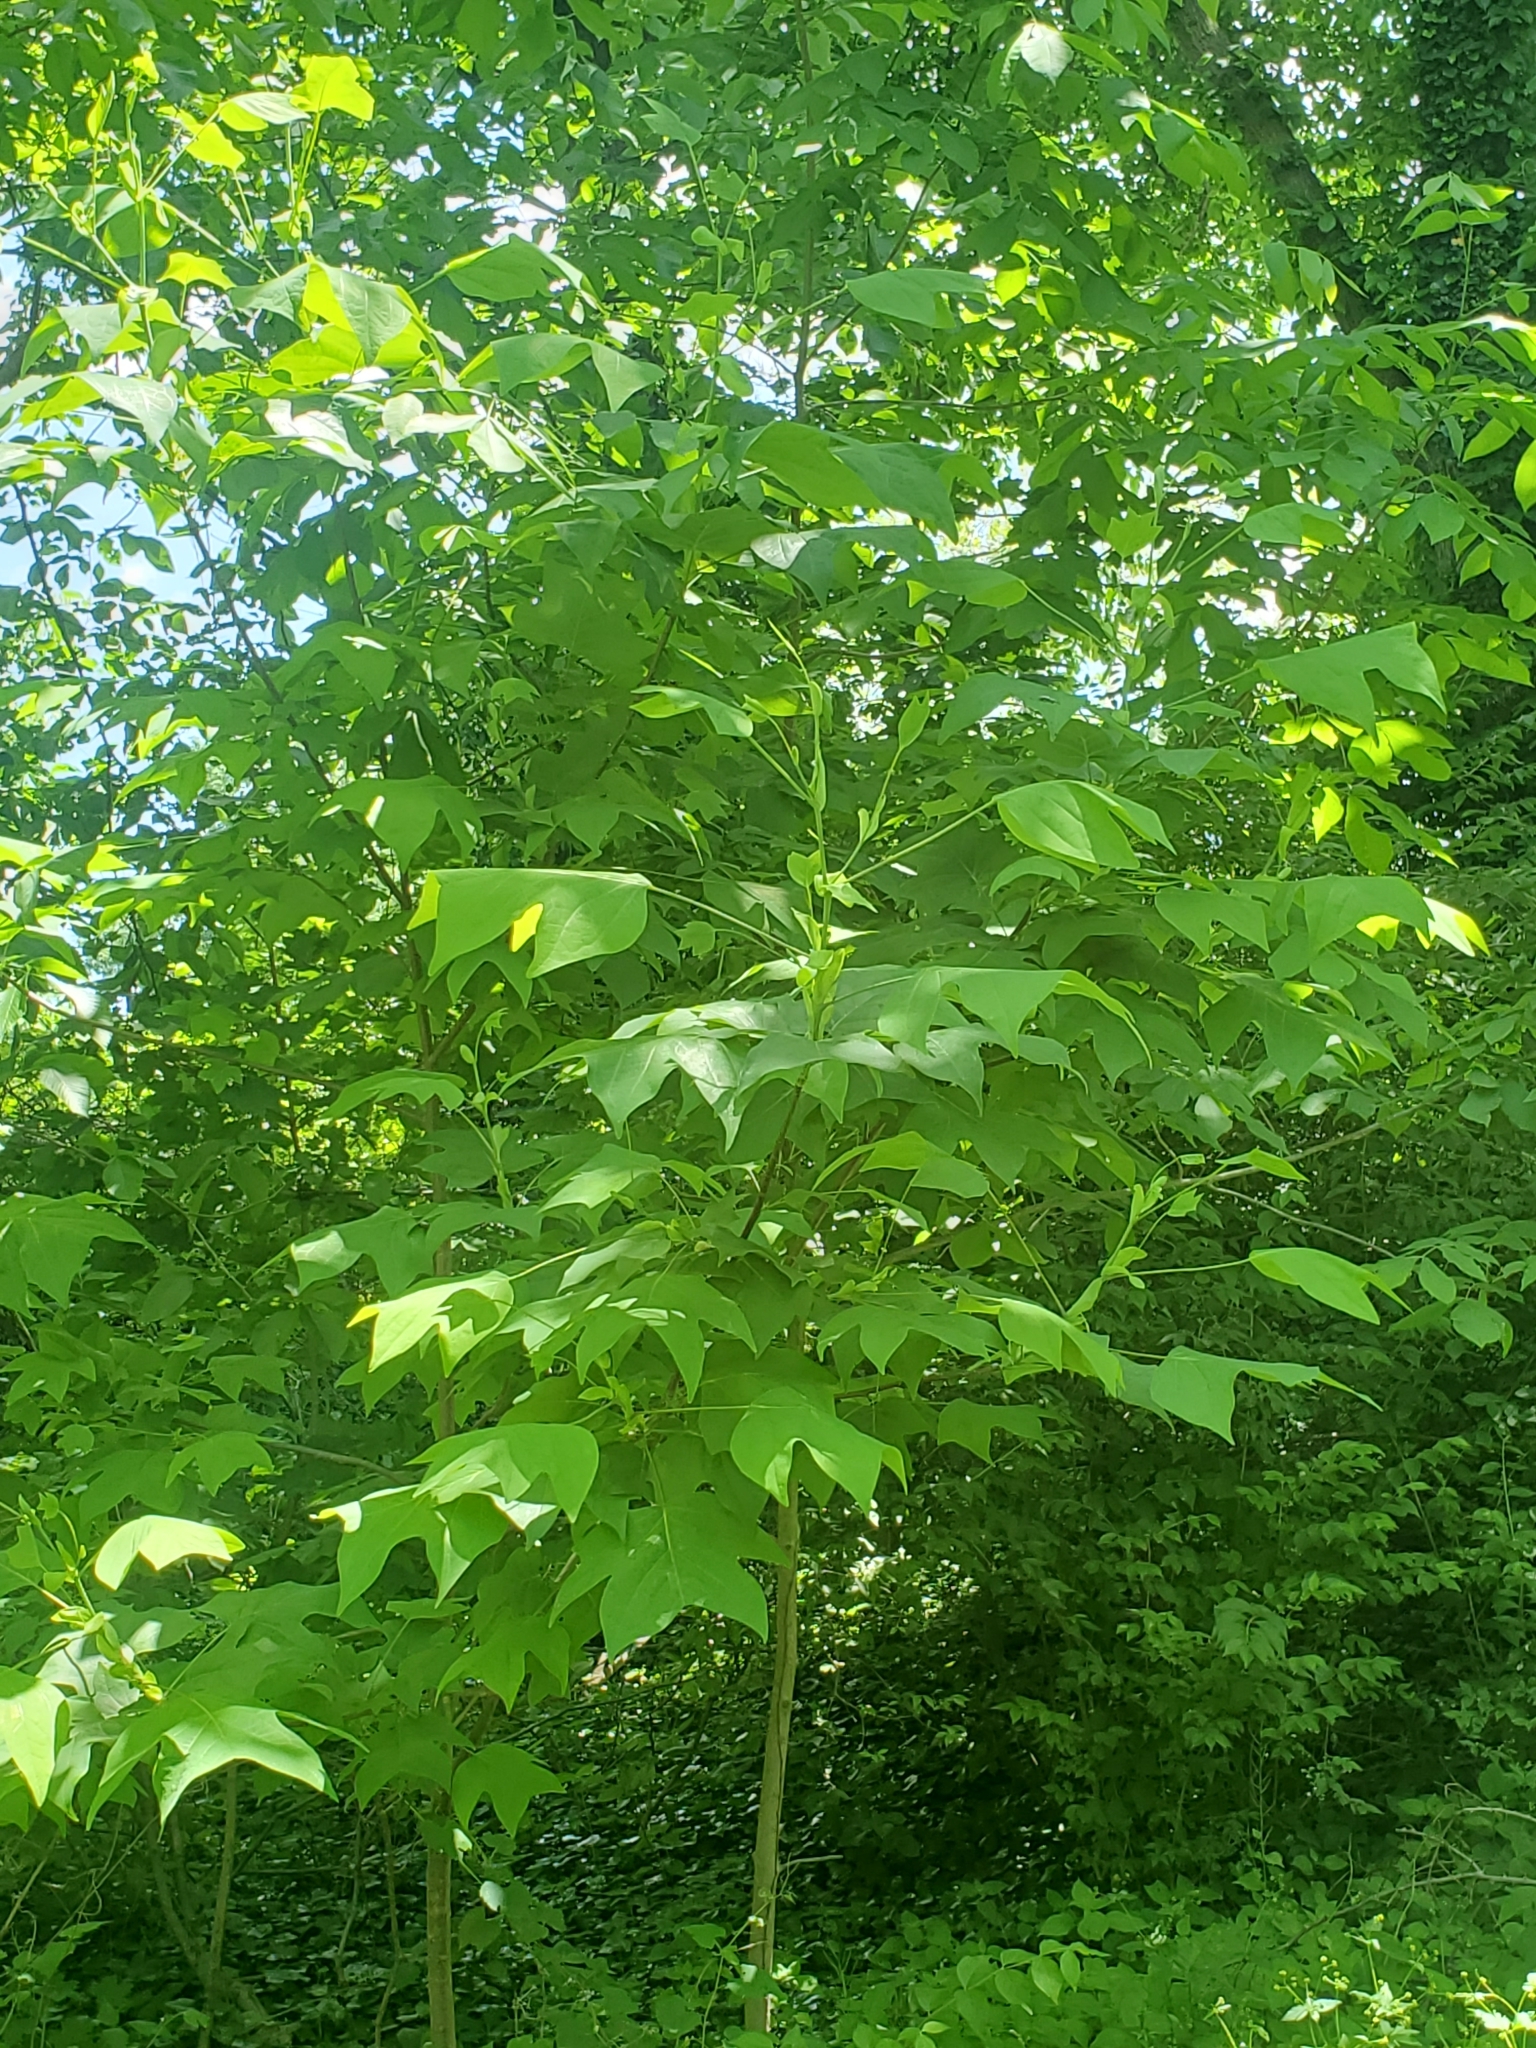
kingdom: Plantae
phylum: Tracheophyta
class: Magnoliopsida
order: Magnoliales
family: Magnoliaceae
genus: Liriodendron
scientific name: Liriodendron tulipifera
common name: Tulip tree
